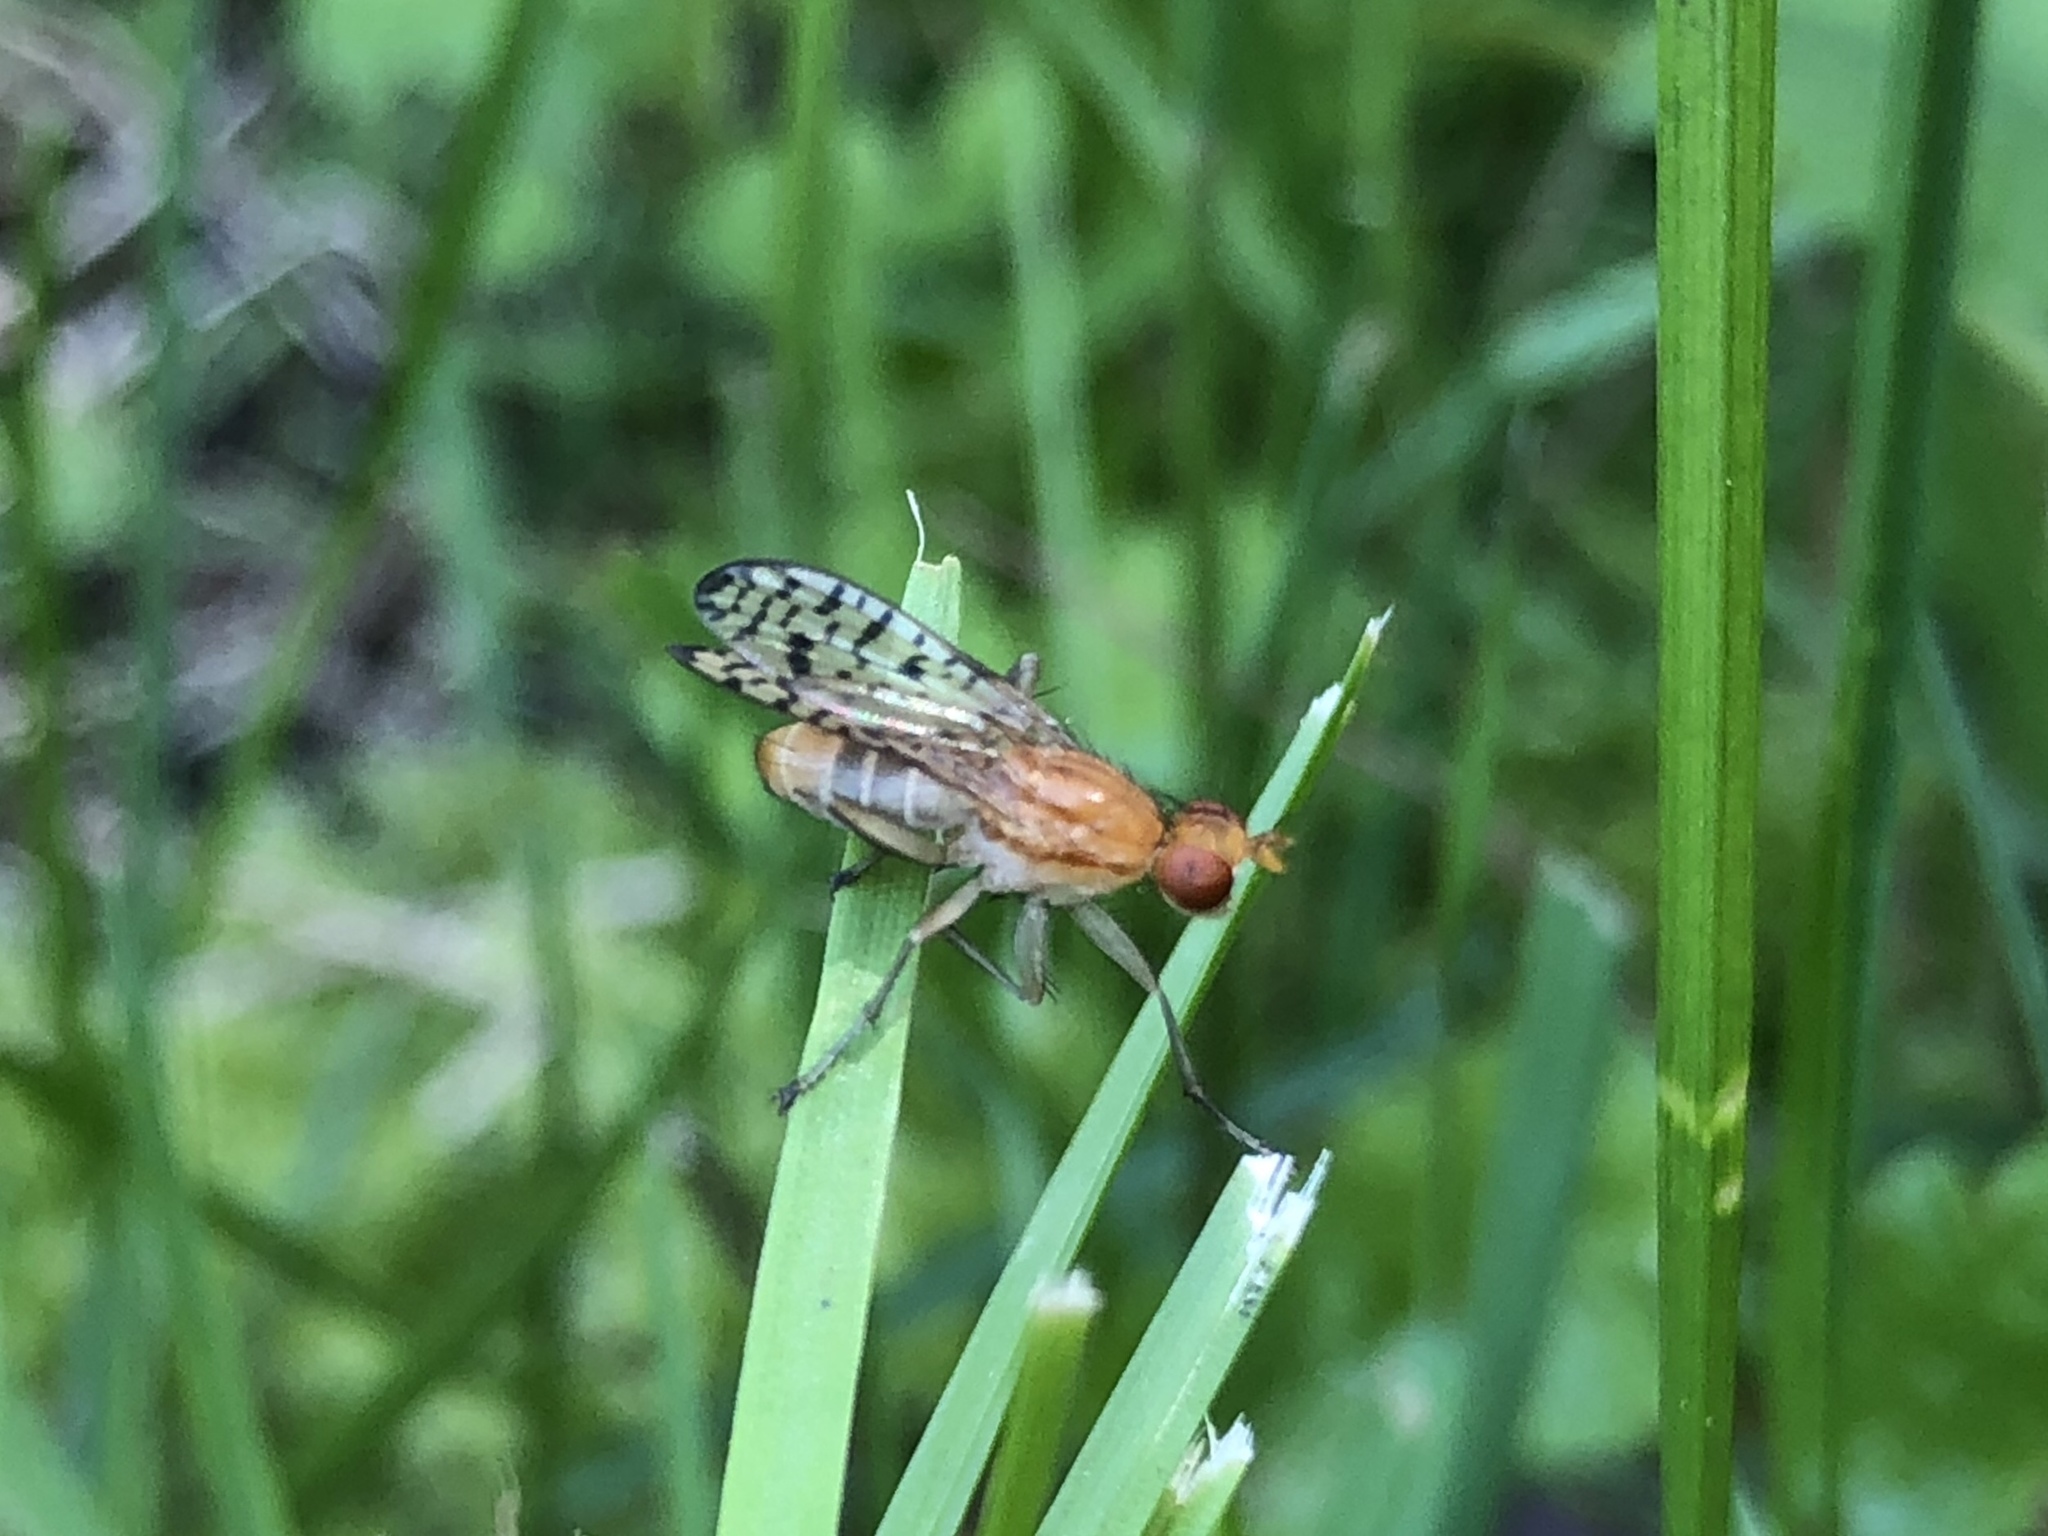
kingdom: Animalia
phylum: Arthropoda
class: Insecta
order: Diptera
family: Sciomyzidae
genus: Tetanocera
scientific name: Tetanocera valida
